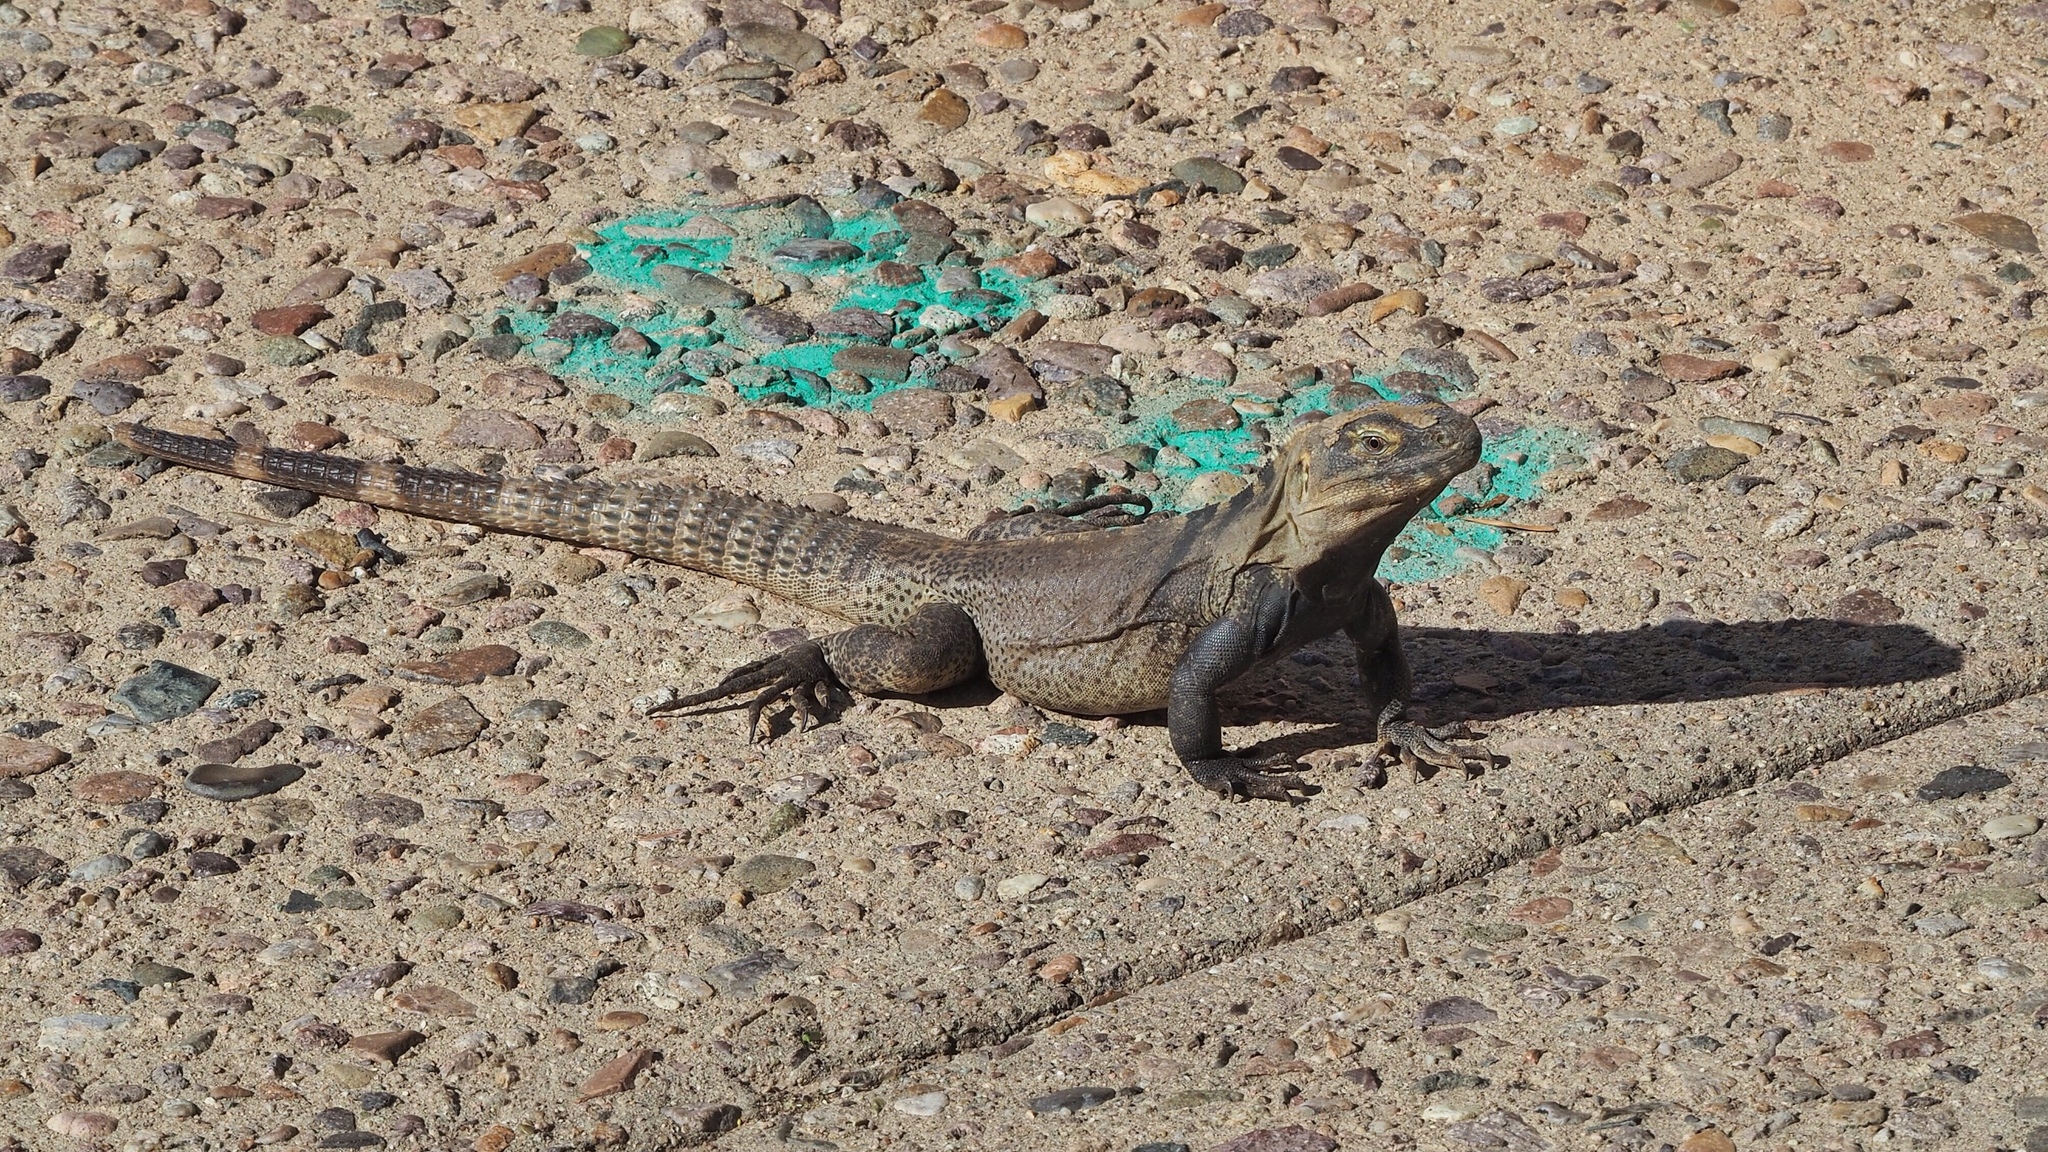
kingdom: Animalia
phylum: Chordata
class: Squamata
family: Iguanidae
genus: Ctenosaura
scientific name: Ctenosaura
